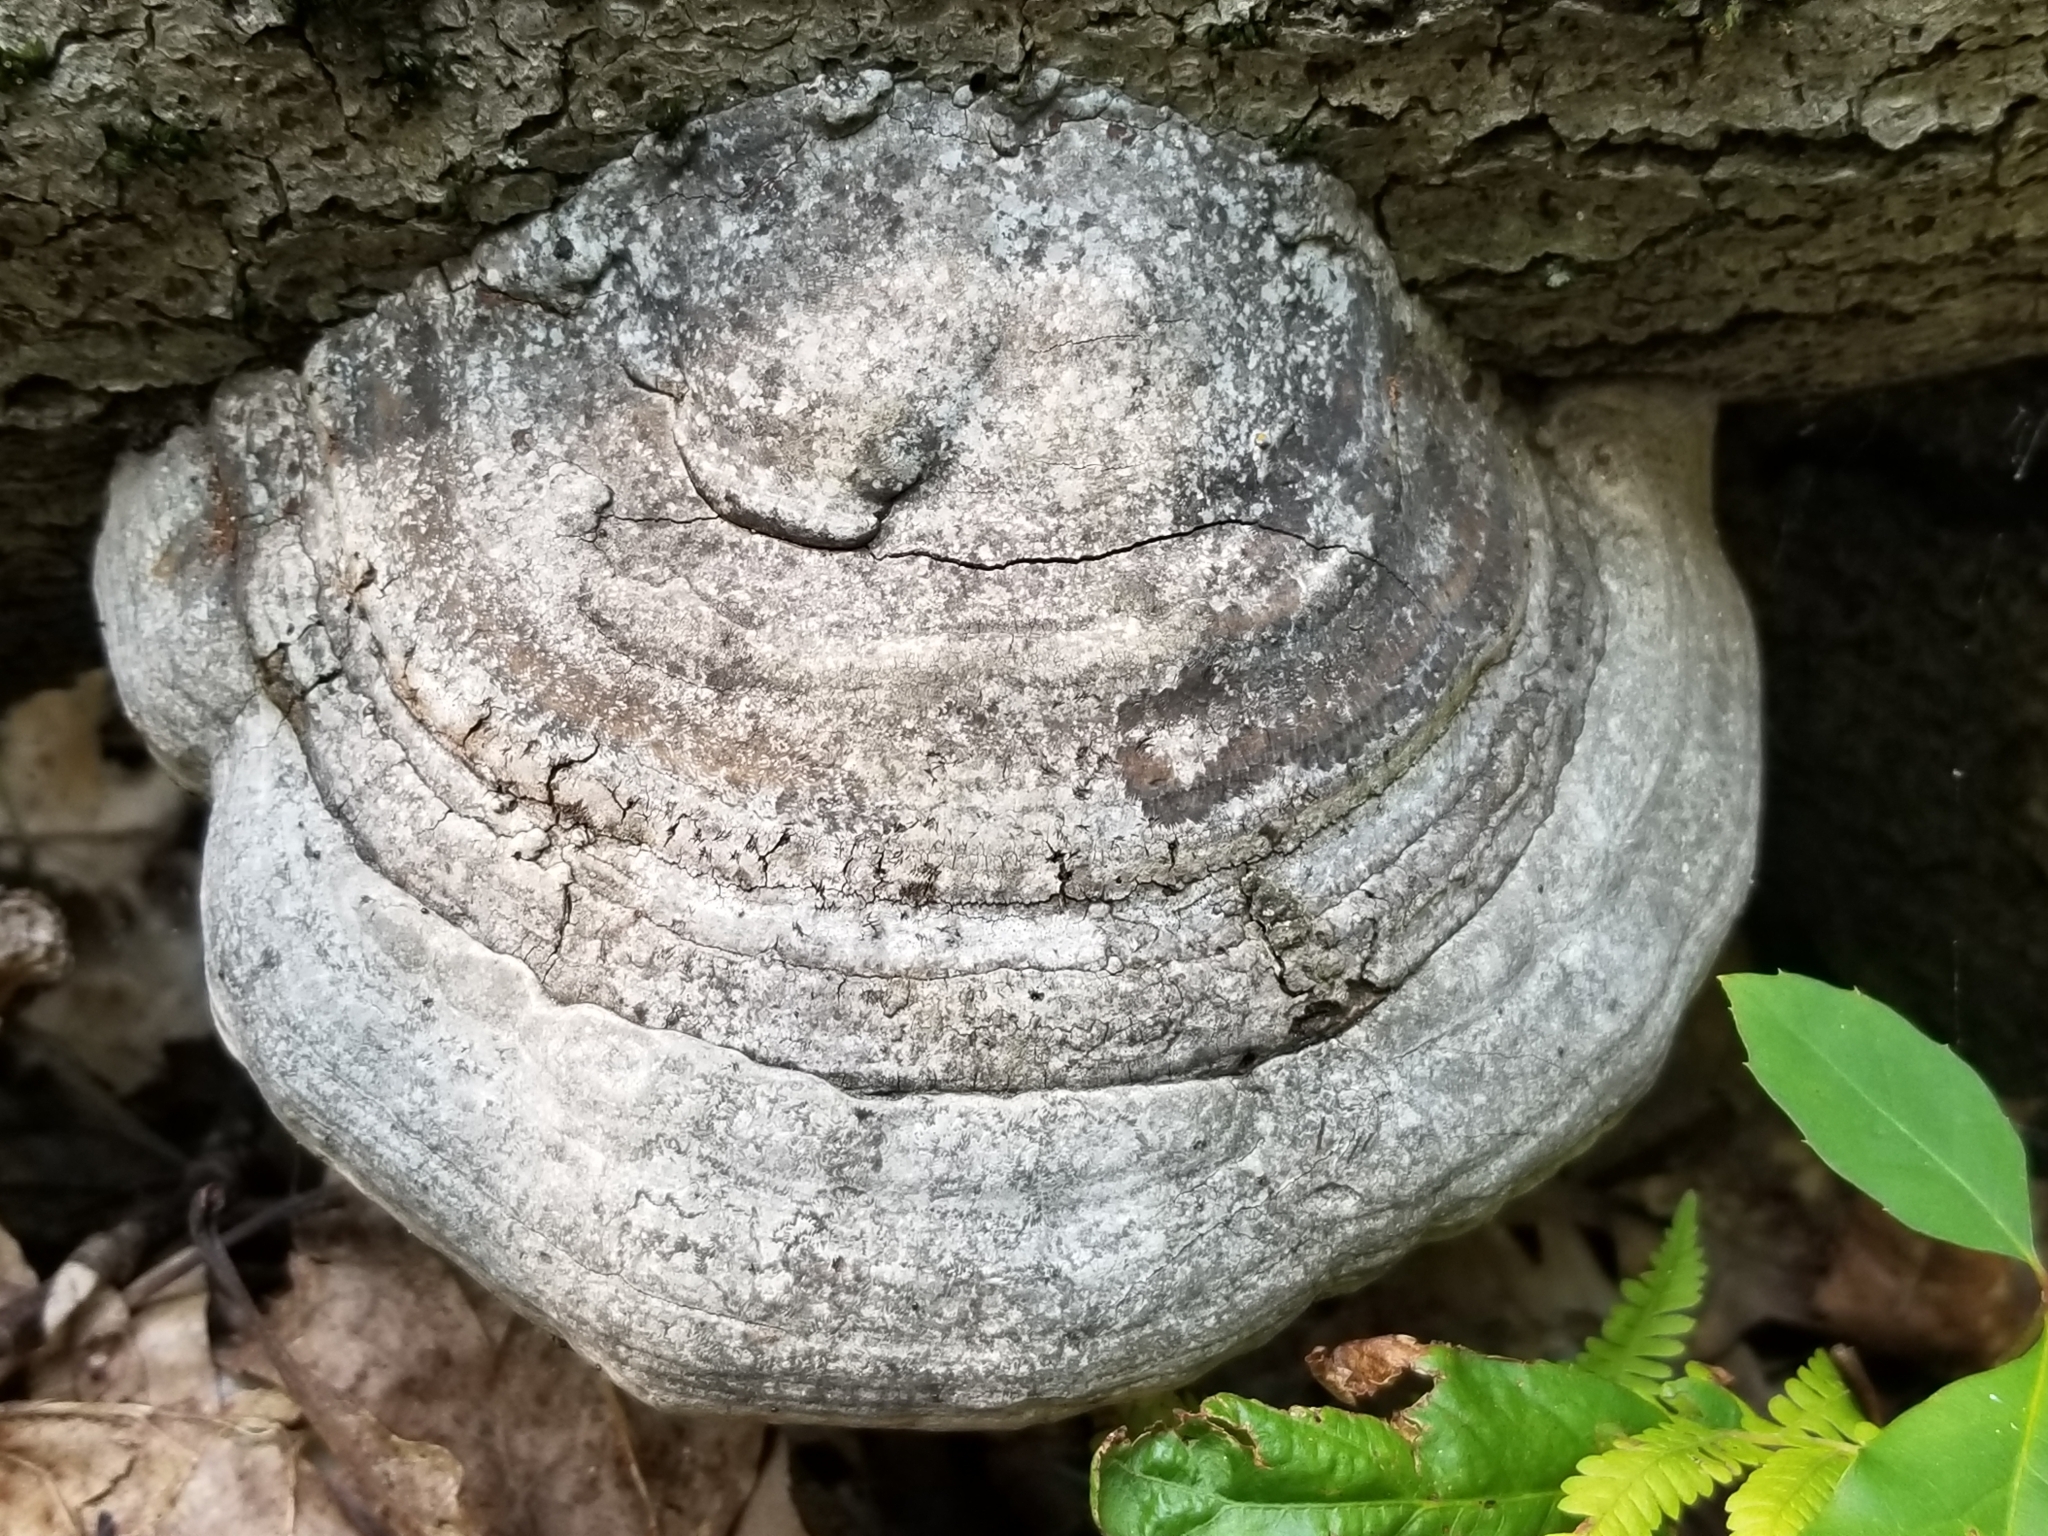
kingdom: Fungi
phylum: Basidiomycota
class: Agaricomycetes
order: Polyporales
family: Polyporaceae
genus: Fomes
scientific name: Fomes fomentarius
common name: Hoof fungus
